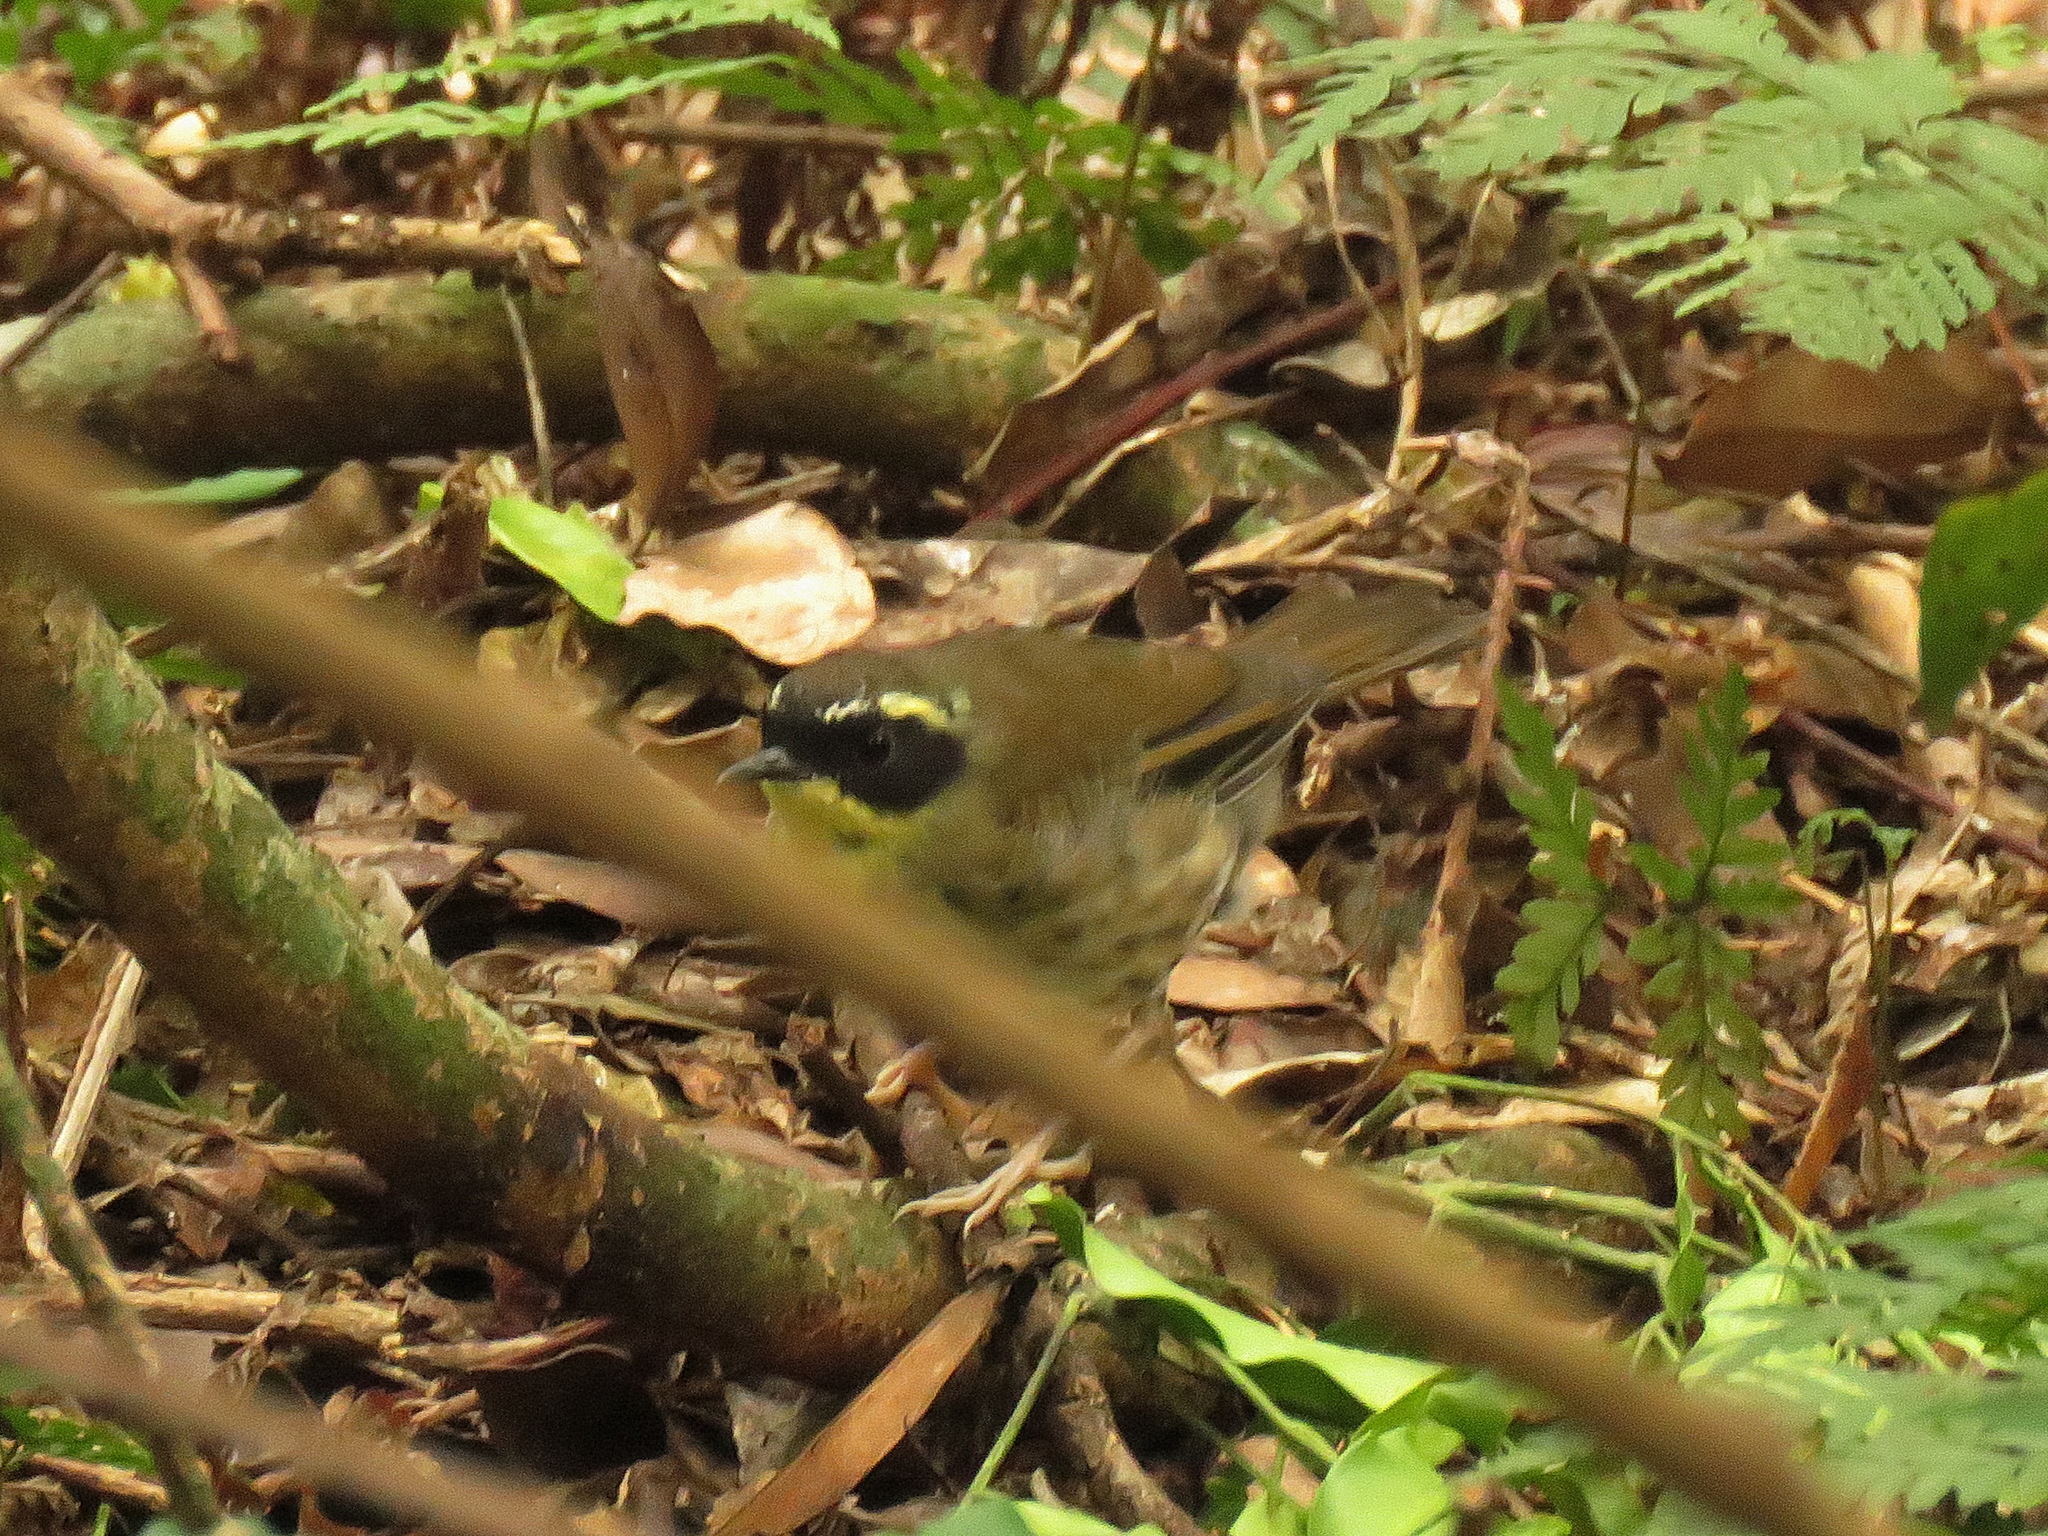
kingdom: Animalia
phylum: Chordata
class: Aves
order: Passeriformes
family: Acanthizidae
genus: Sericornis
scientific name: Sericornis citreogularis
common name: Yellow-throated scrubwren
